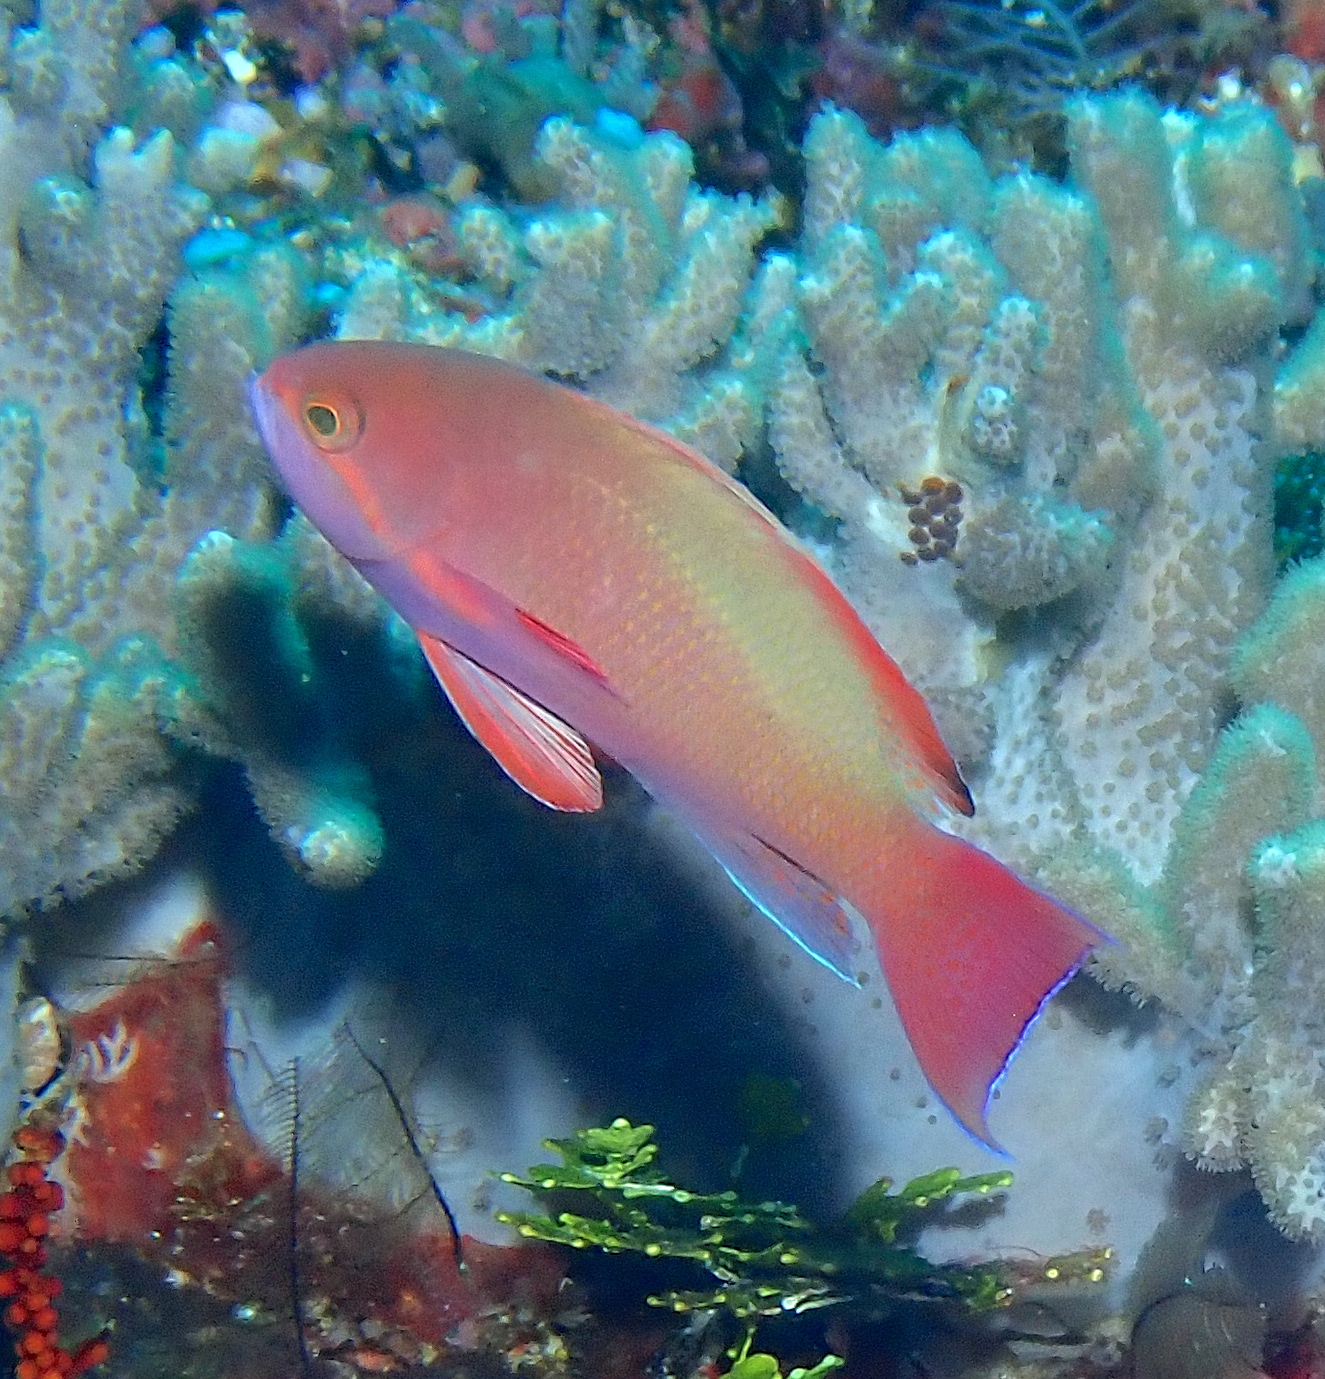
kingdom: Animalia
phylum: Chordata
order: Perciformes
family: Serranidae
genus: Pseudanthias
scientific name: Pseudanthias squamipinnis
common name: Scalefin anthias
